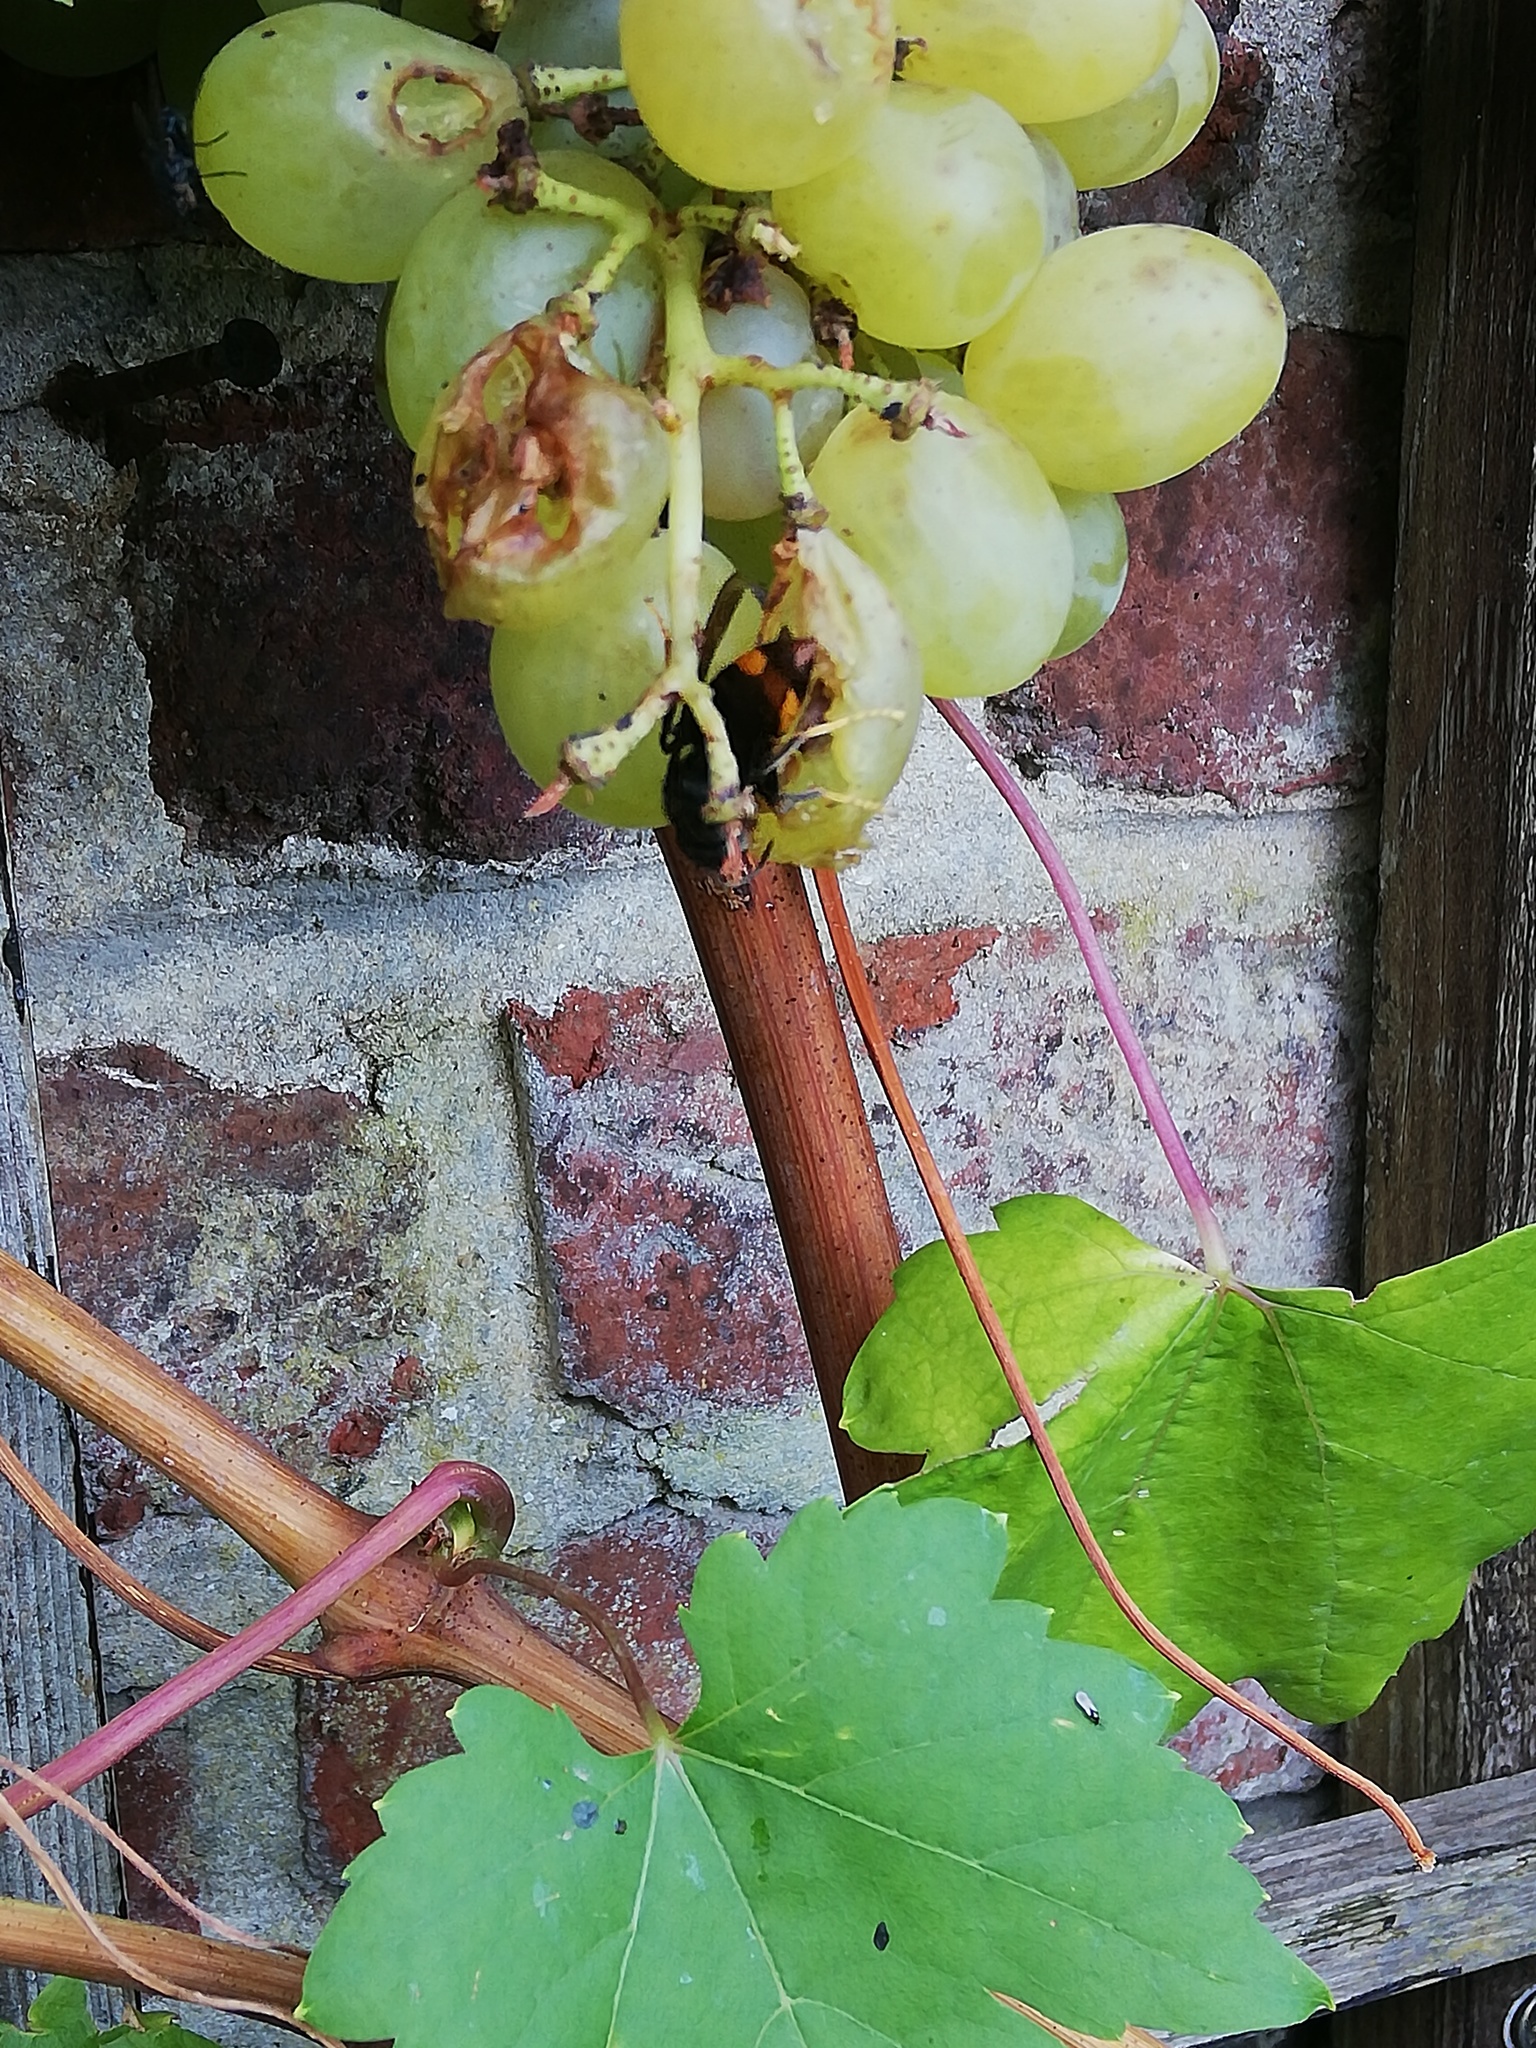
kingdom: Animalia
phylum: Arthropoda
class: Insecta
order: Hymenoptera
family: Vespidae
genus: Vespa
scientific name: Vespa velutina
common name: Asian hornet
